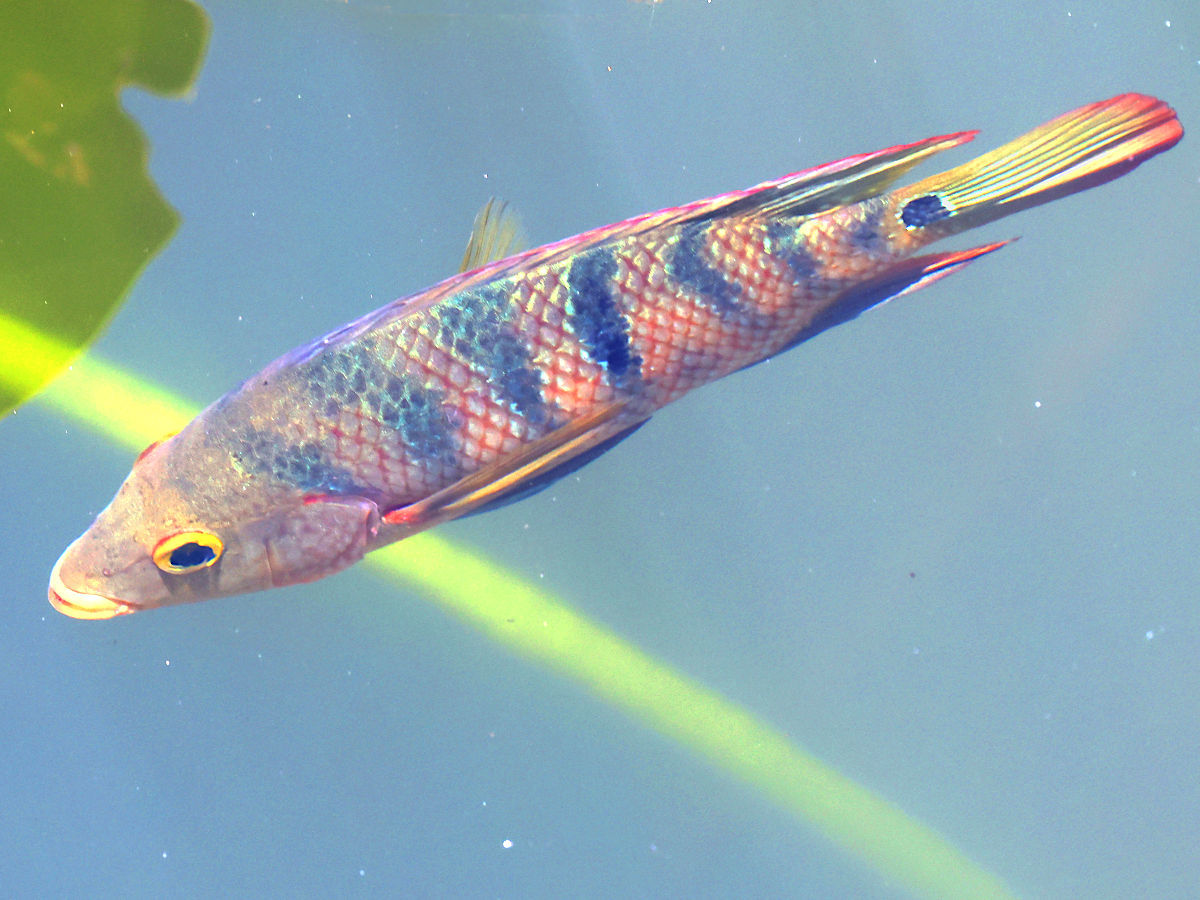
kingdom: Animalia
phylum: Chordata
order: Perciformes
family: Cichlidae
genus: Mayaheros
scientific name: Mayaheros urophthalmus
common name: Mayan cichlid
